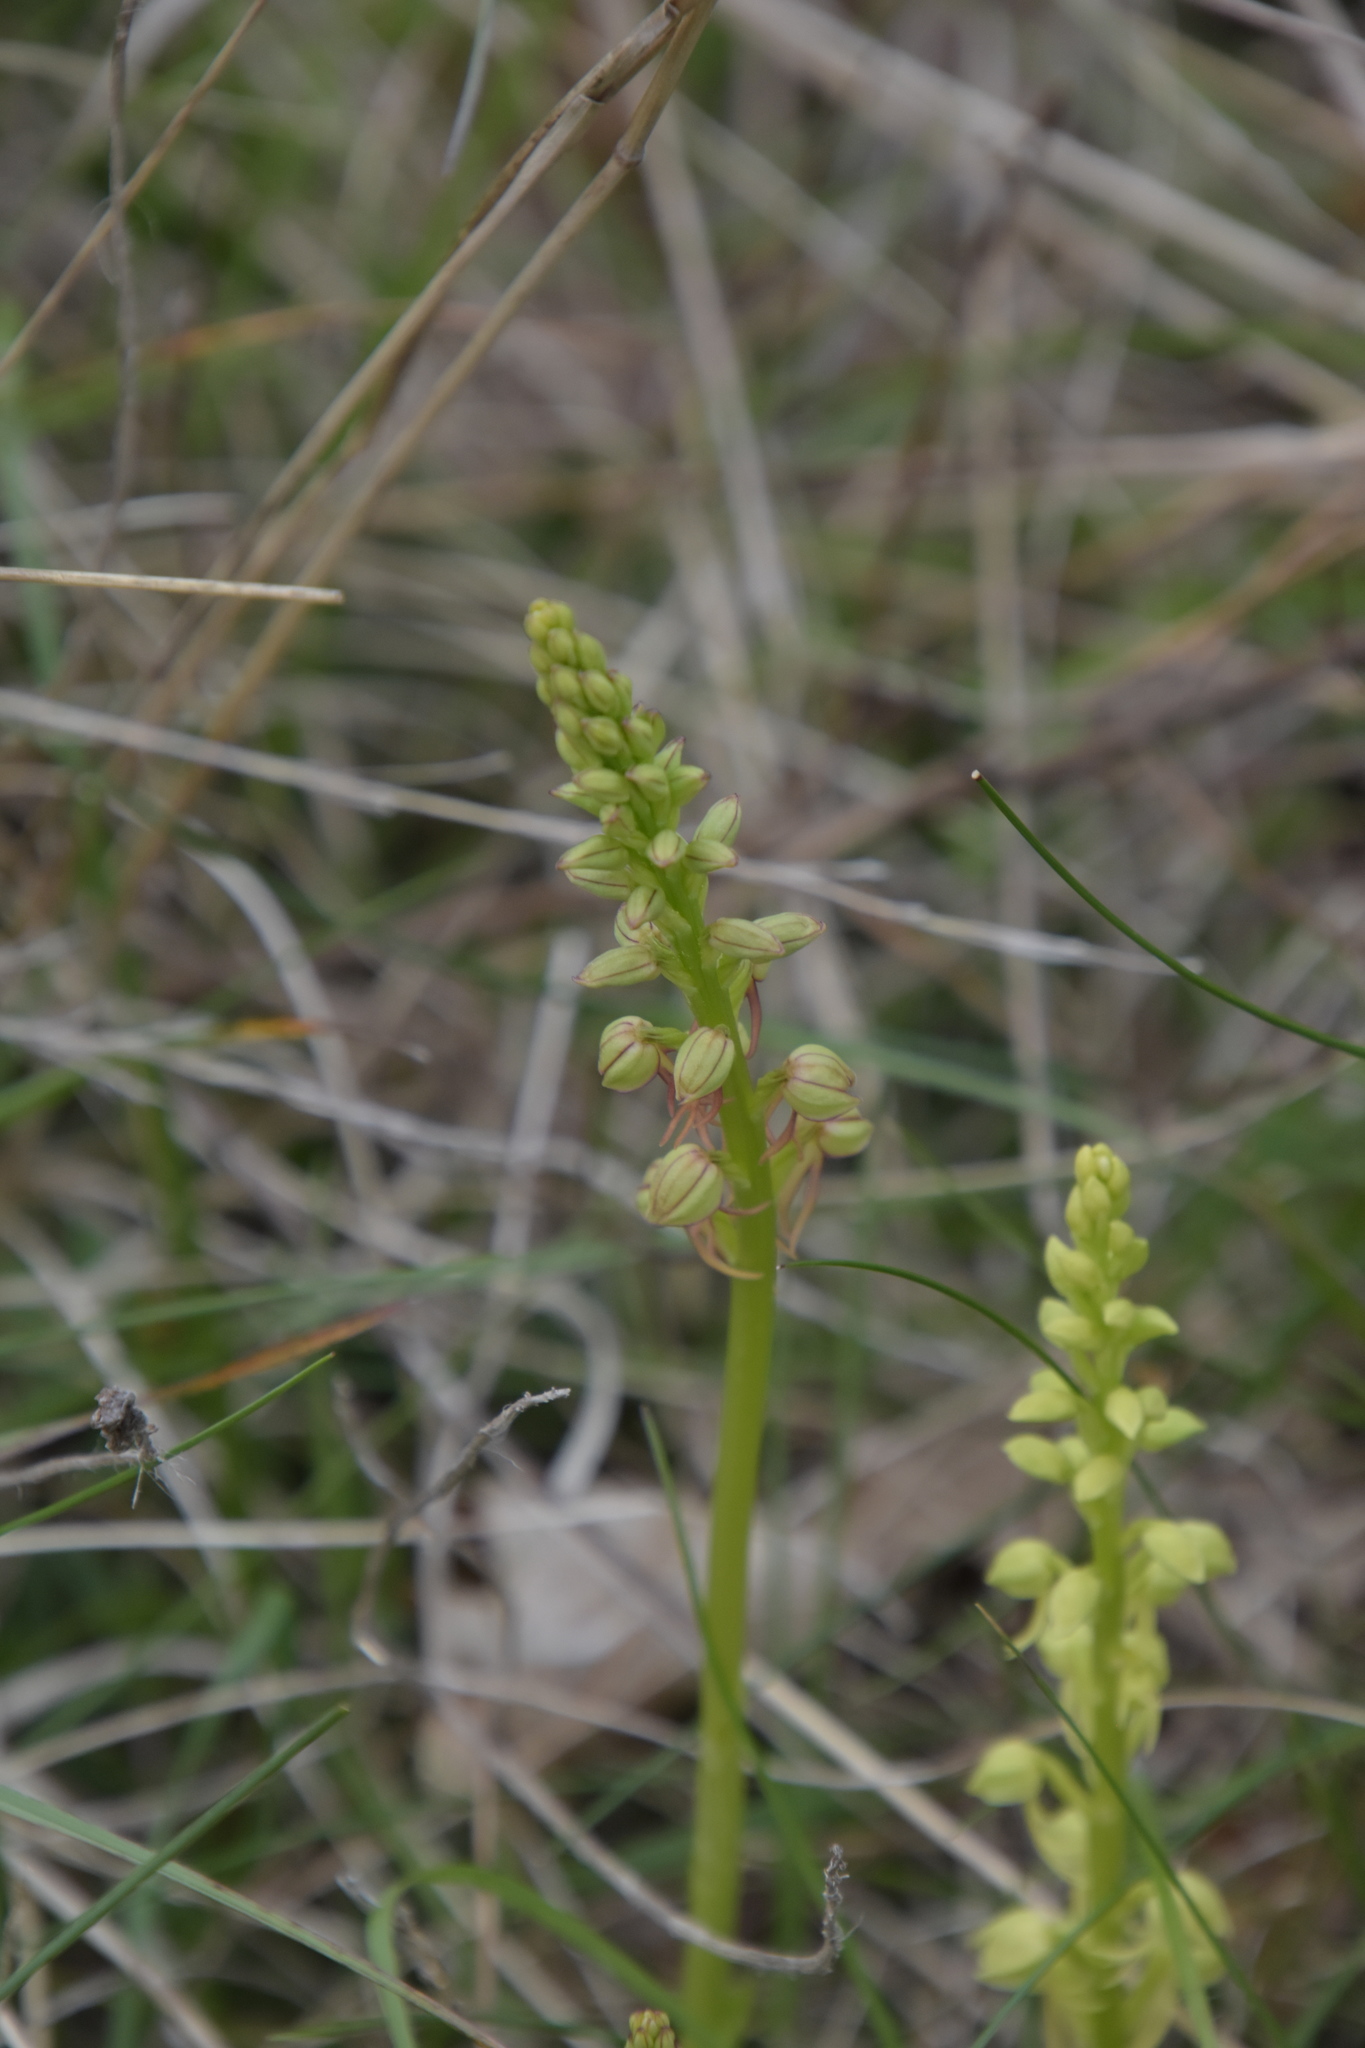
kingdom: Plantae
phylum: Tracheophyta
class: Liliopsida
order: Asparagales
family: Orchidaceae
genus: Orchis
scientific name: Orchis anthropophora
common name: Man orchid
